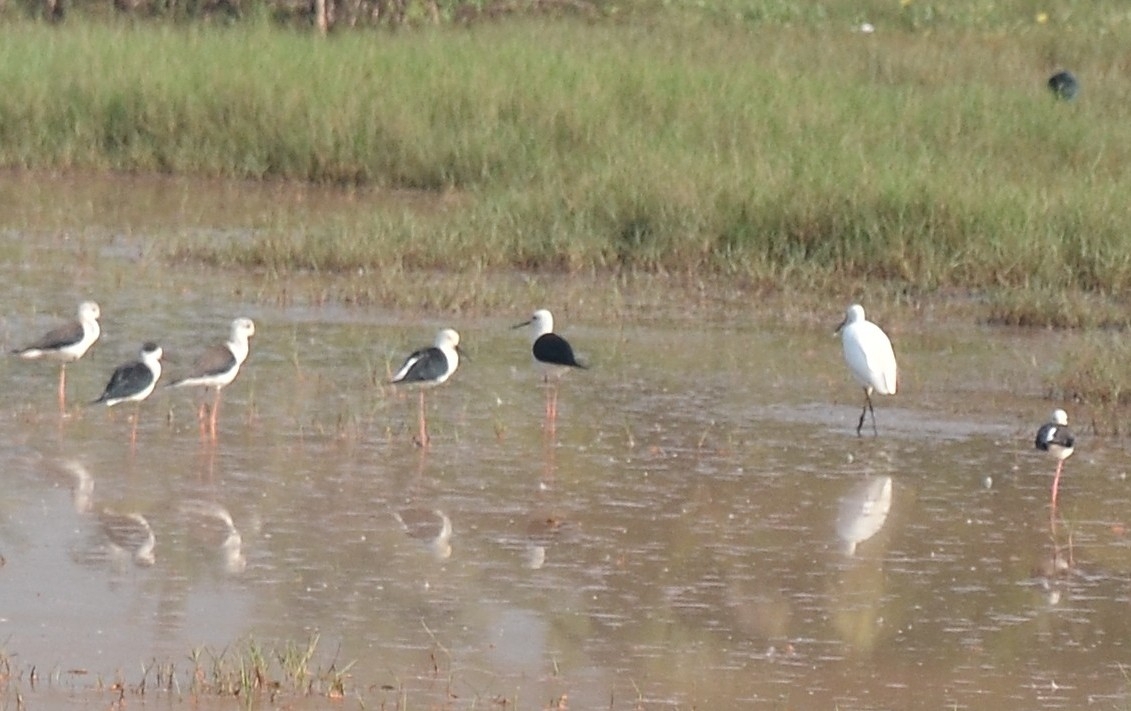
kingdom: Animalia
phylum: Chordata
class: Aves
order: Charadriiformes
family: Recurvirostridae
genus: Himantopus
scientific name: Himantopus himantopus
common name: Black-winged stilt
